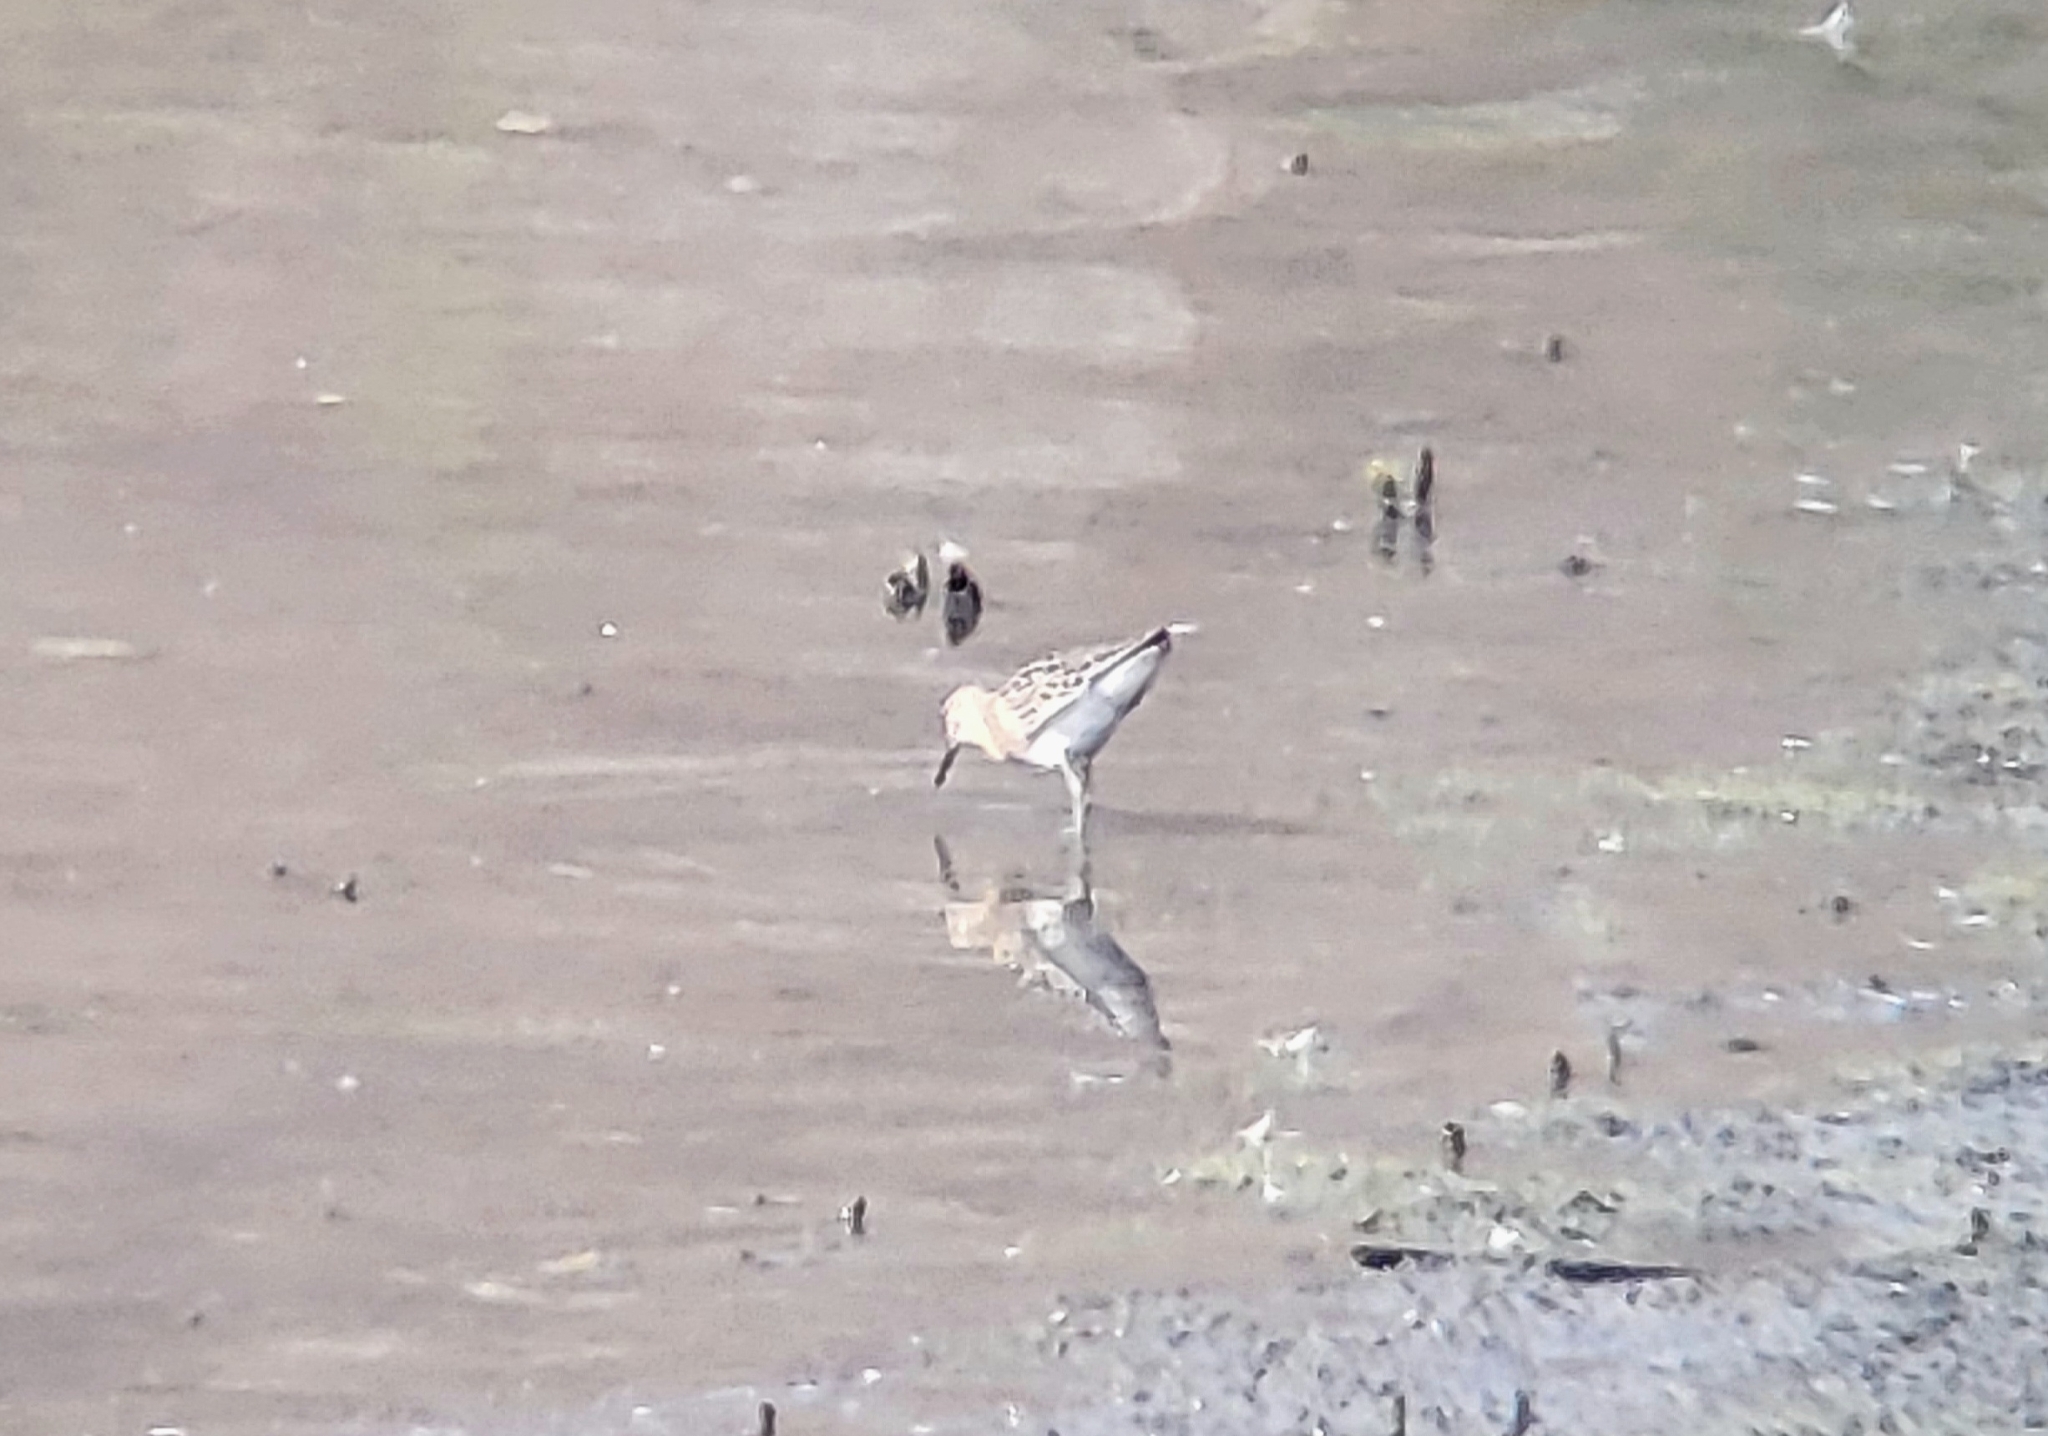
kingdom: Animalia
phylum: Chordata
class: Aves
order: Charadriiformes
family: Scolopacidae
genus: Calidris
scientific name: Calidris pugnax
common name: Ruff
